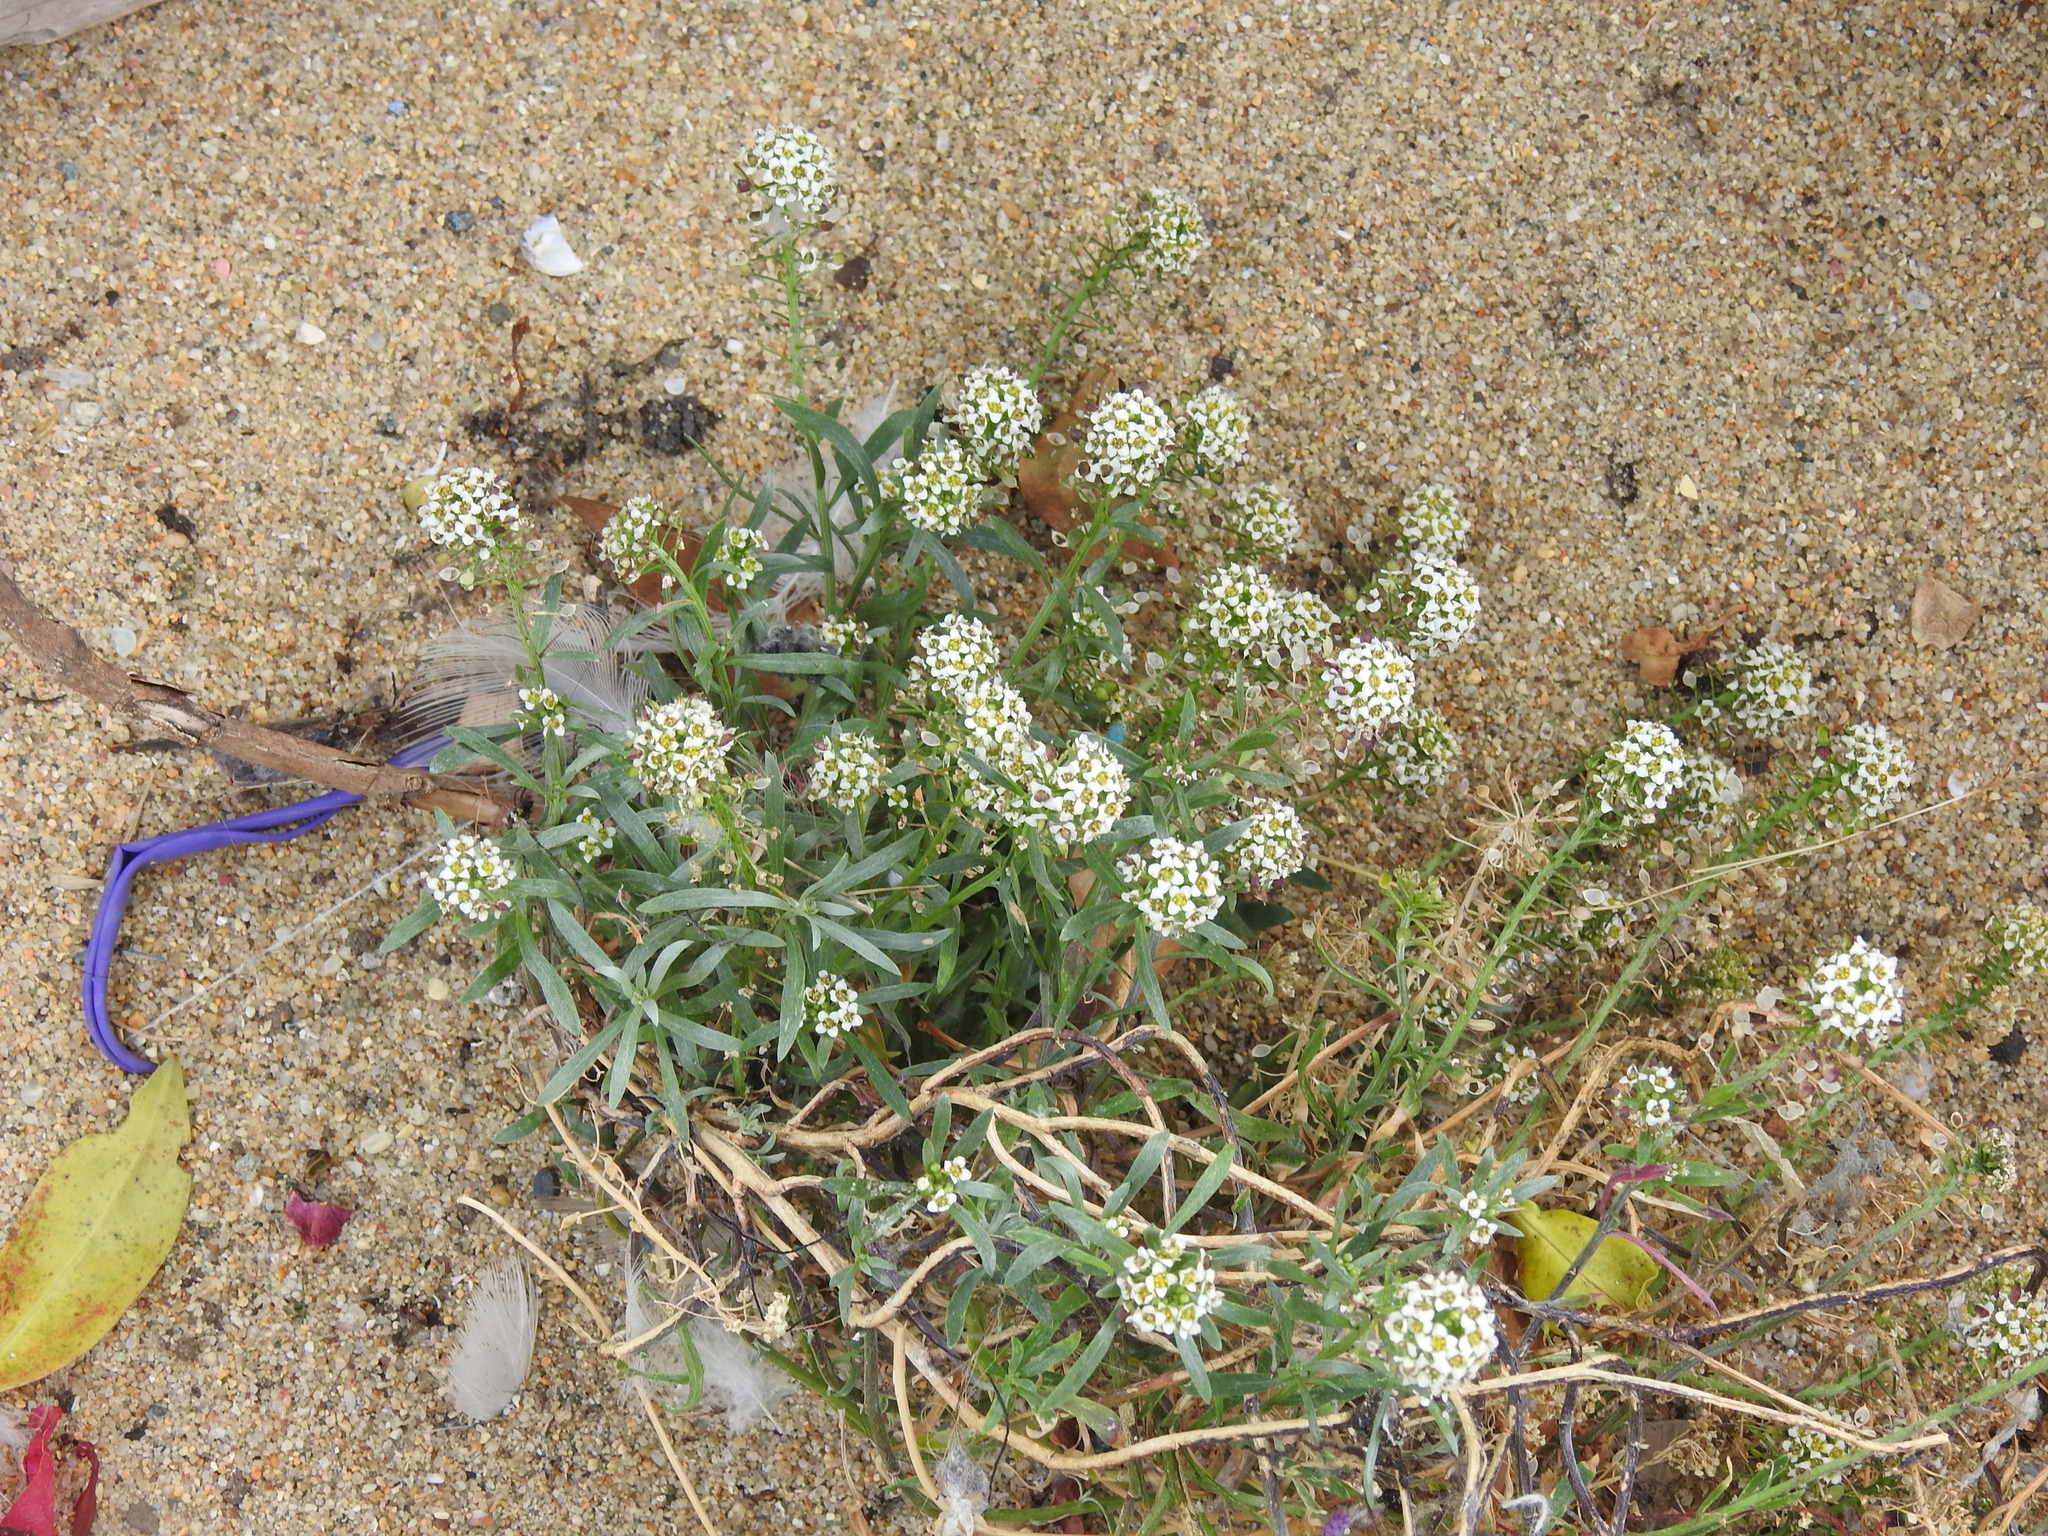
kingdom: Plantae
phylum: Tracheophyta
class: Magnoliopsida
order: Brassicales
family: Brassicaceae
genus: Lobularia
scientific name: Lobularia maritima
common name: Sweet alison
